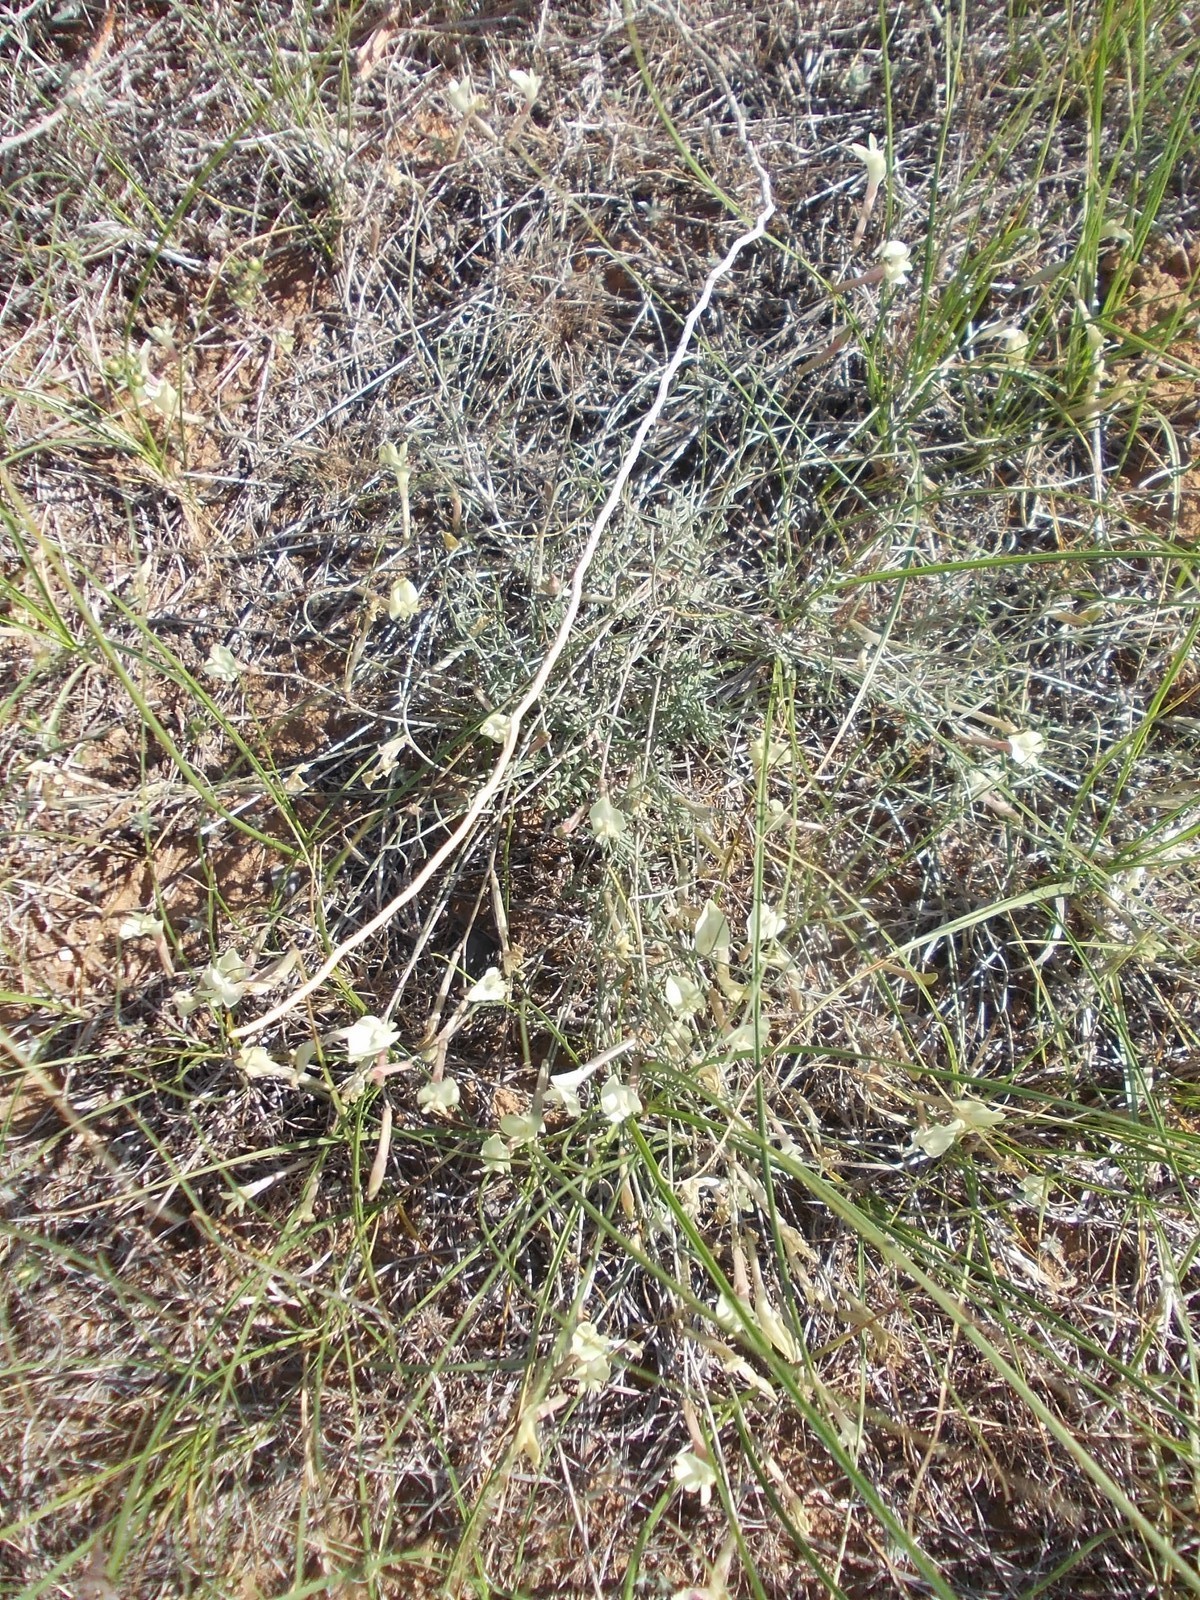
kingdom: Plantae
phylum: Tracheophyta
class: Magnoliopsida
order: Fabales
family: Fabaceae
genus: Astragalus
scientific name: Astragalus ucrainicus
